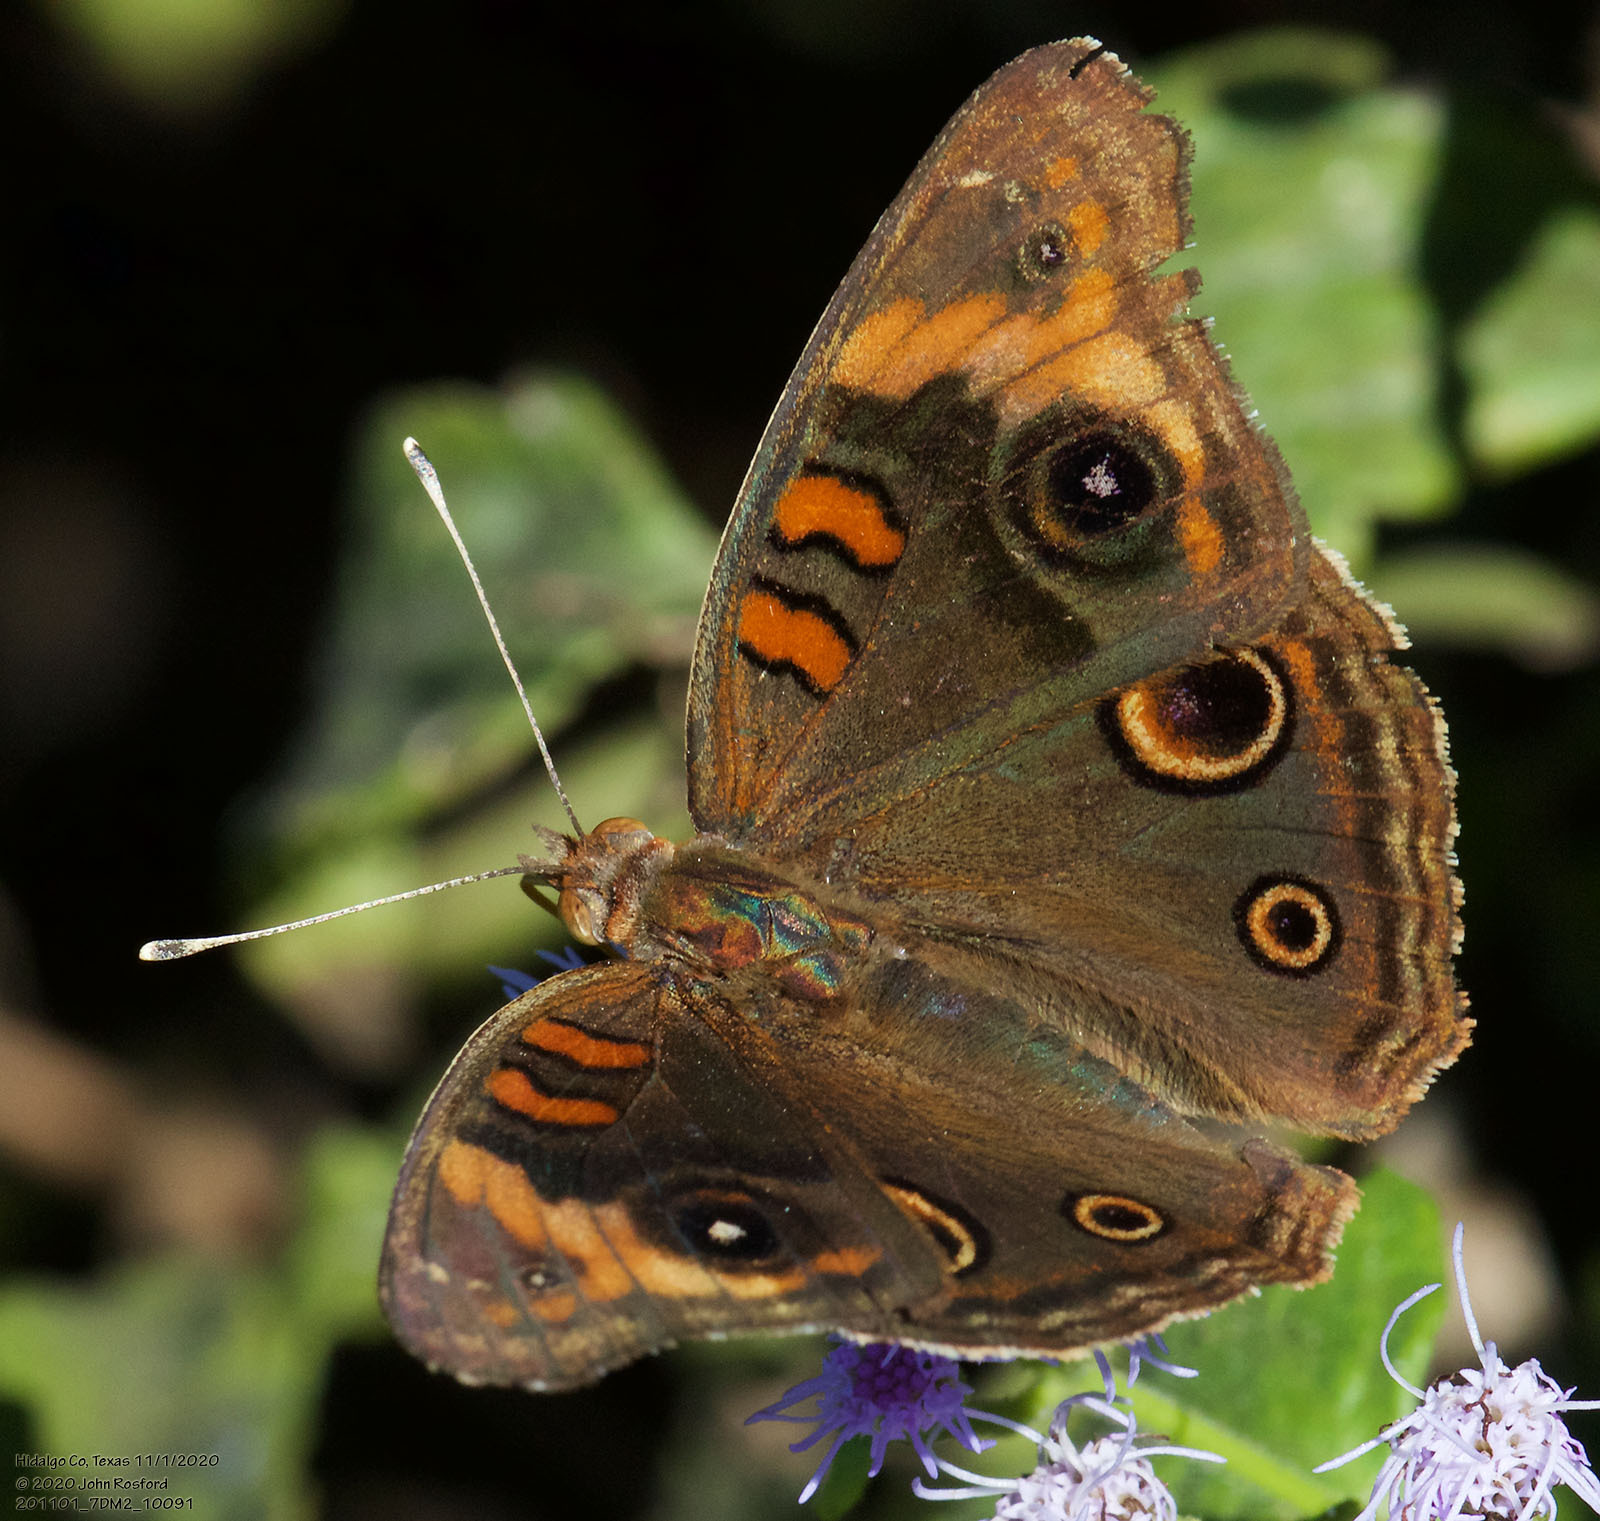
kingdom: Animalia
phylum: Arthropoda
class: Insecta
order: Lepidoptera
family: Nymphalidae
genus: Junonia
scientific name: Junonia stemosa
